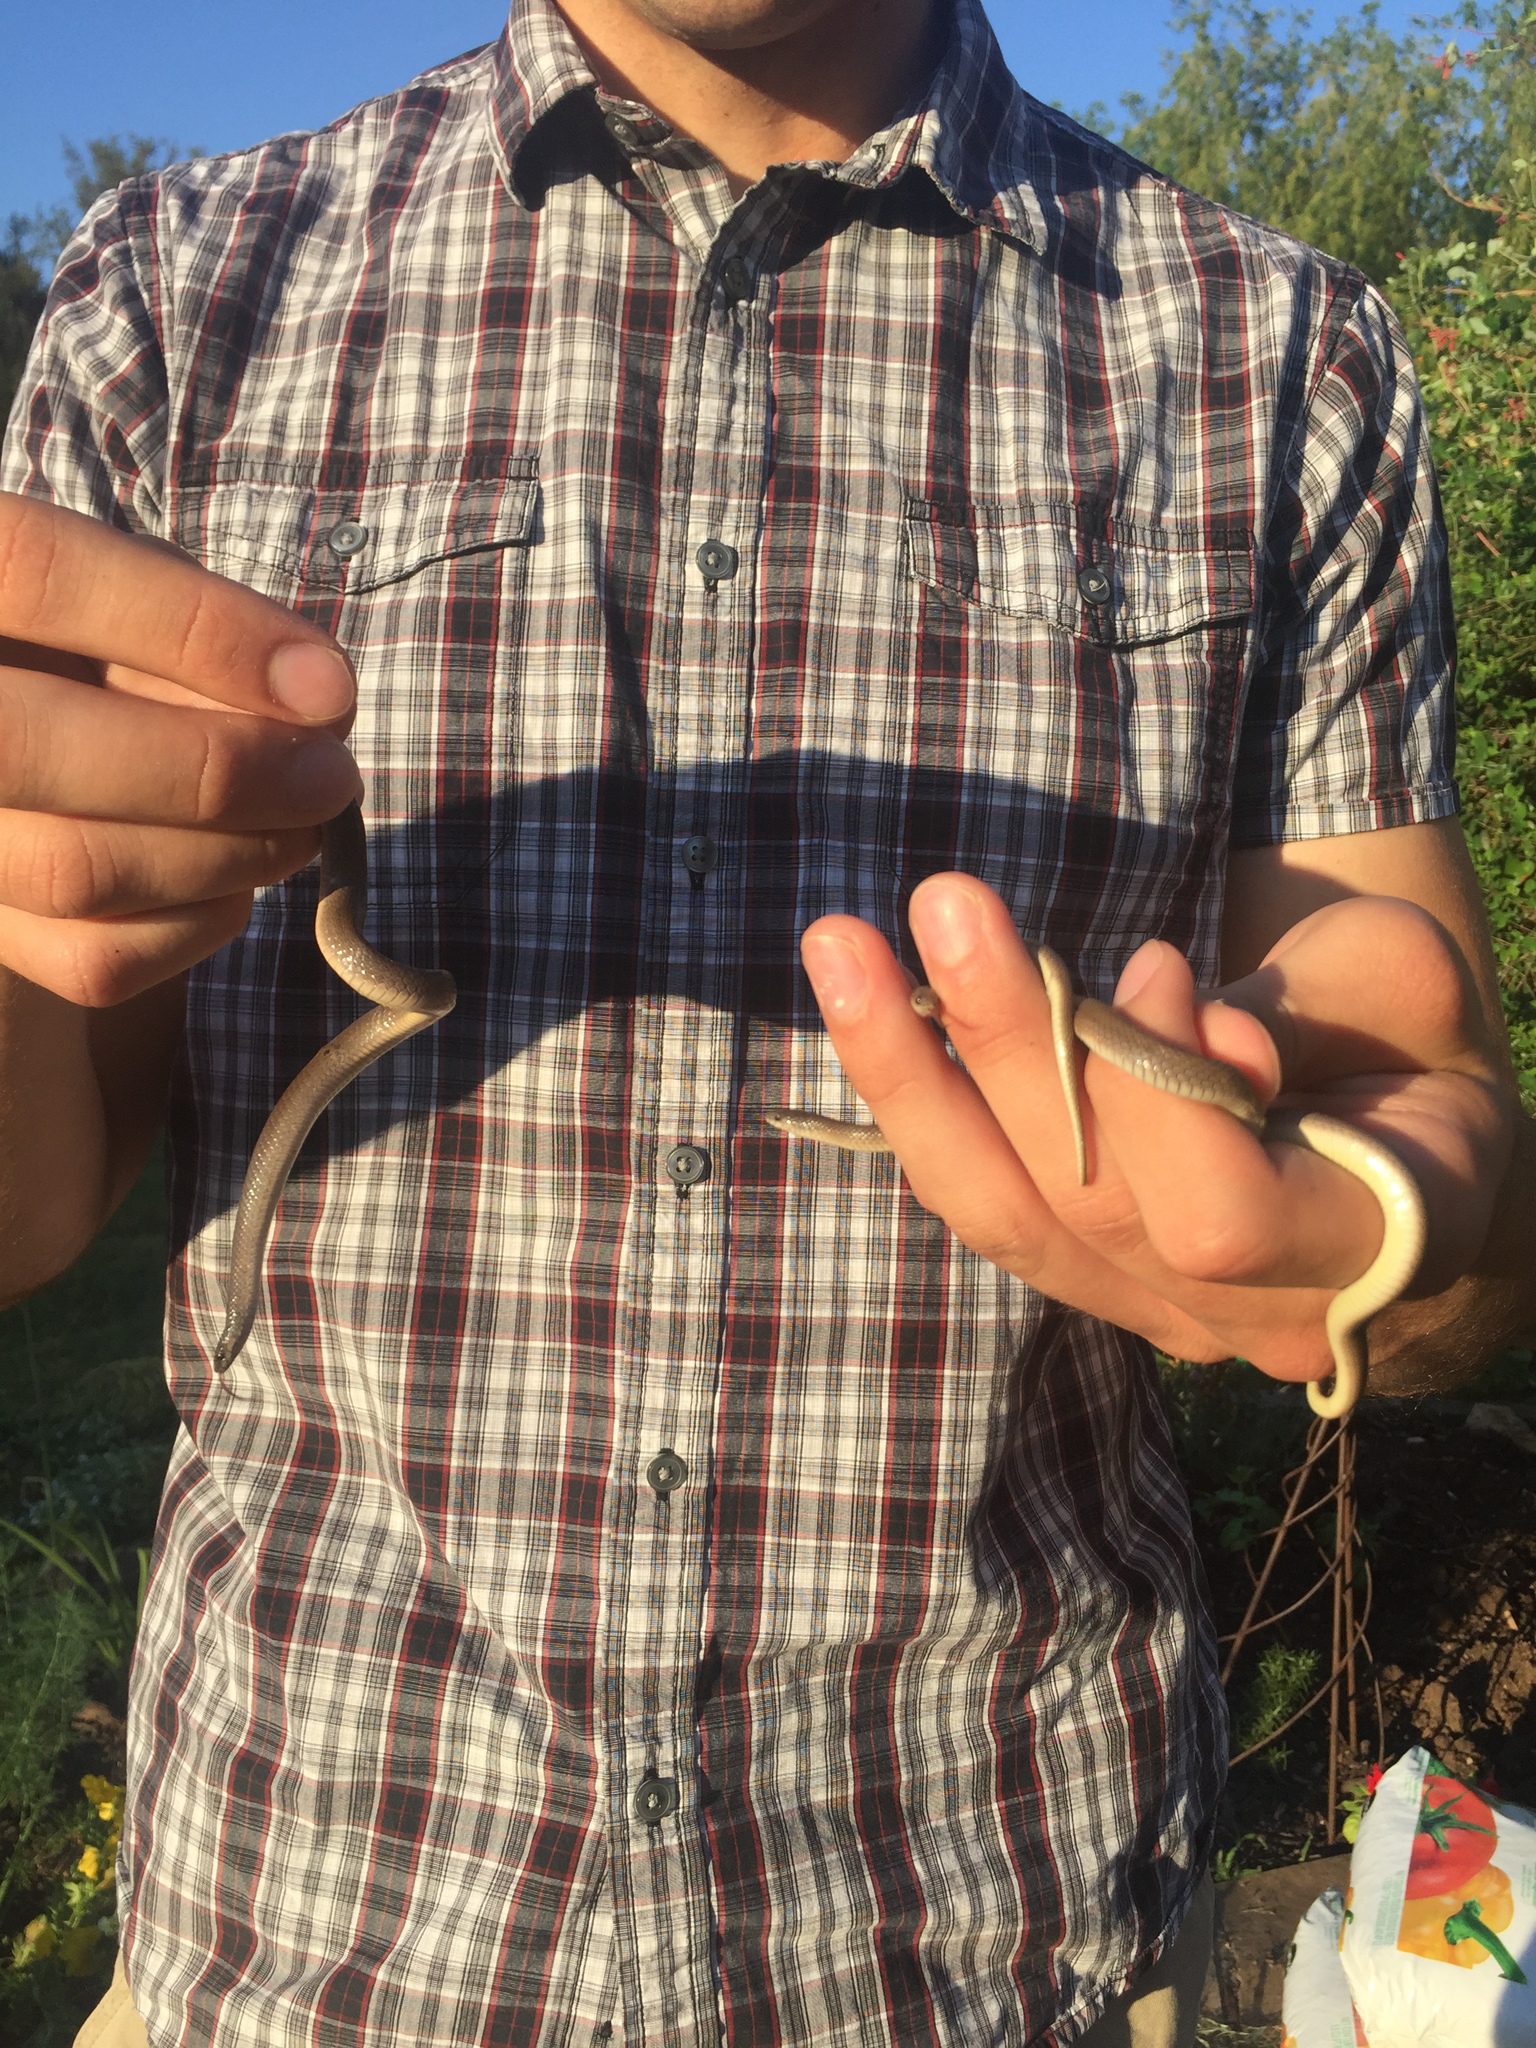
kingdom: Animalia
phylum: Chordata
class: Squamata
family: Colubridae
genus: Haldea
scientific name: Haldea striatula
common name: Rough earth snake
